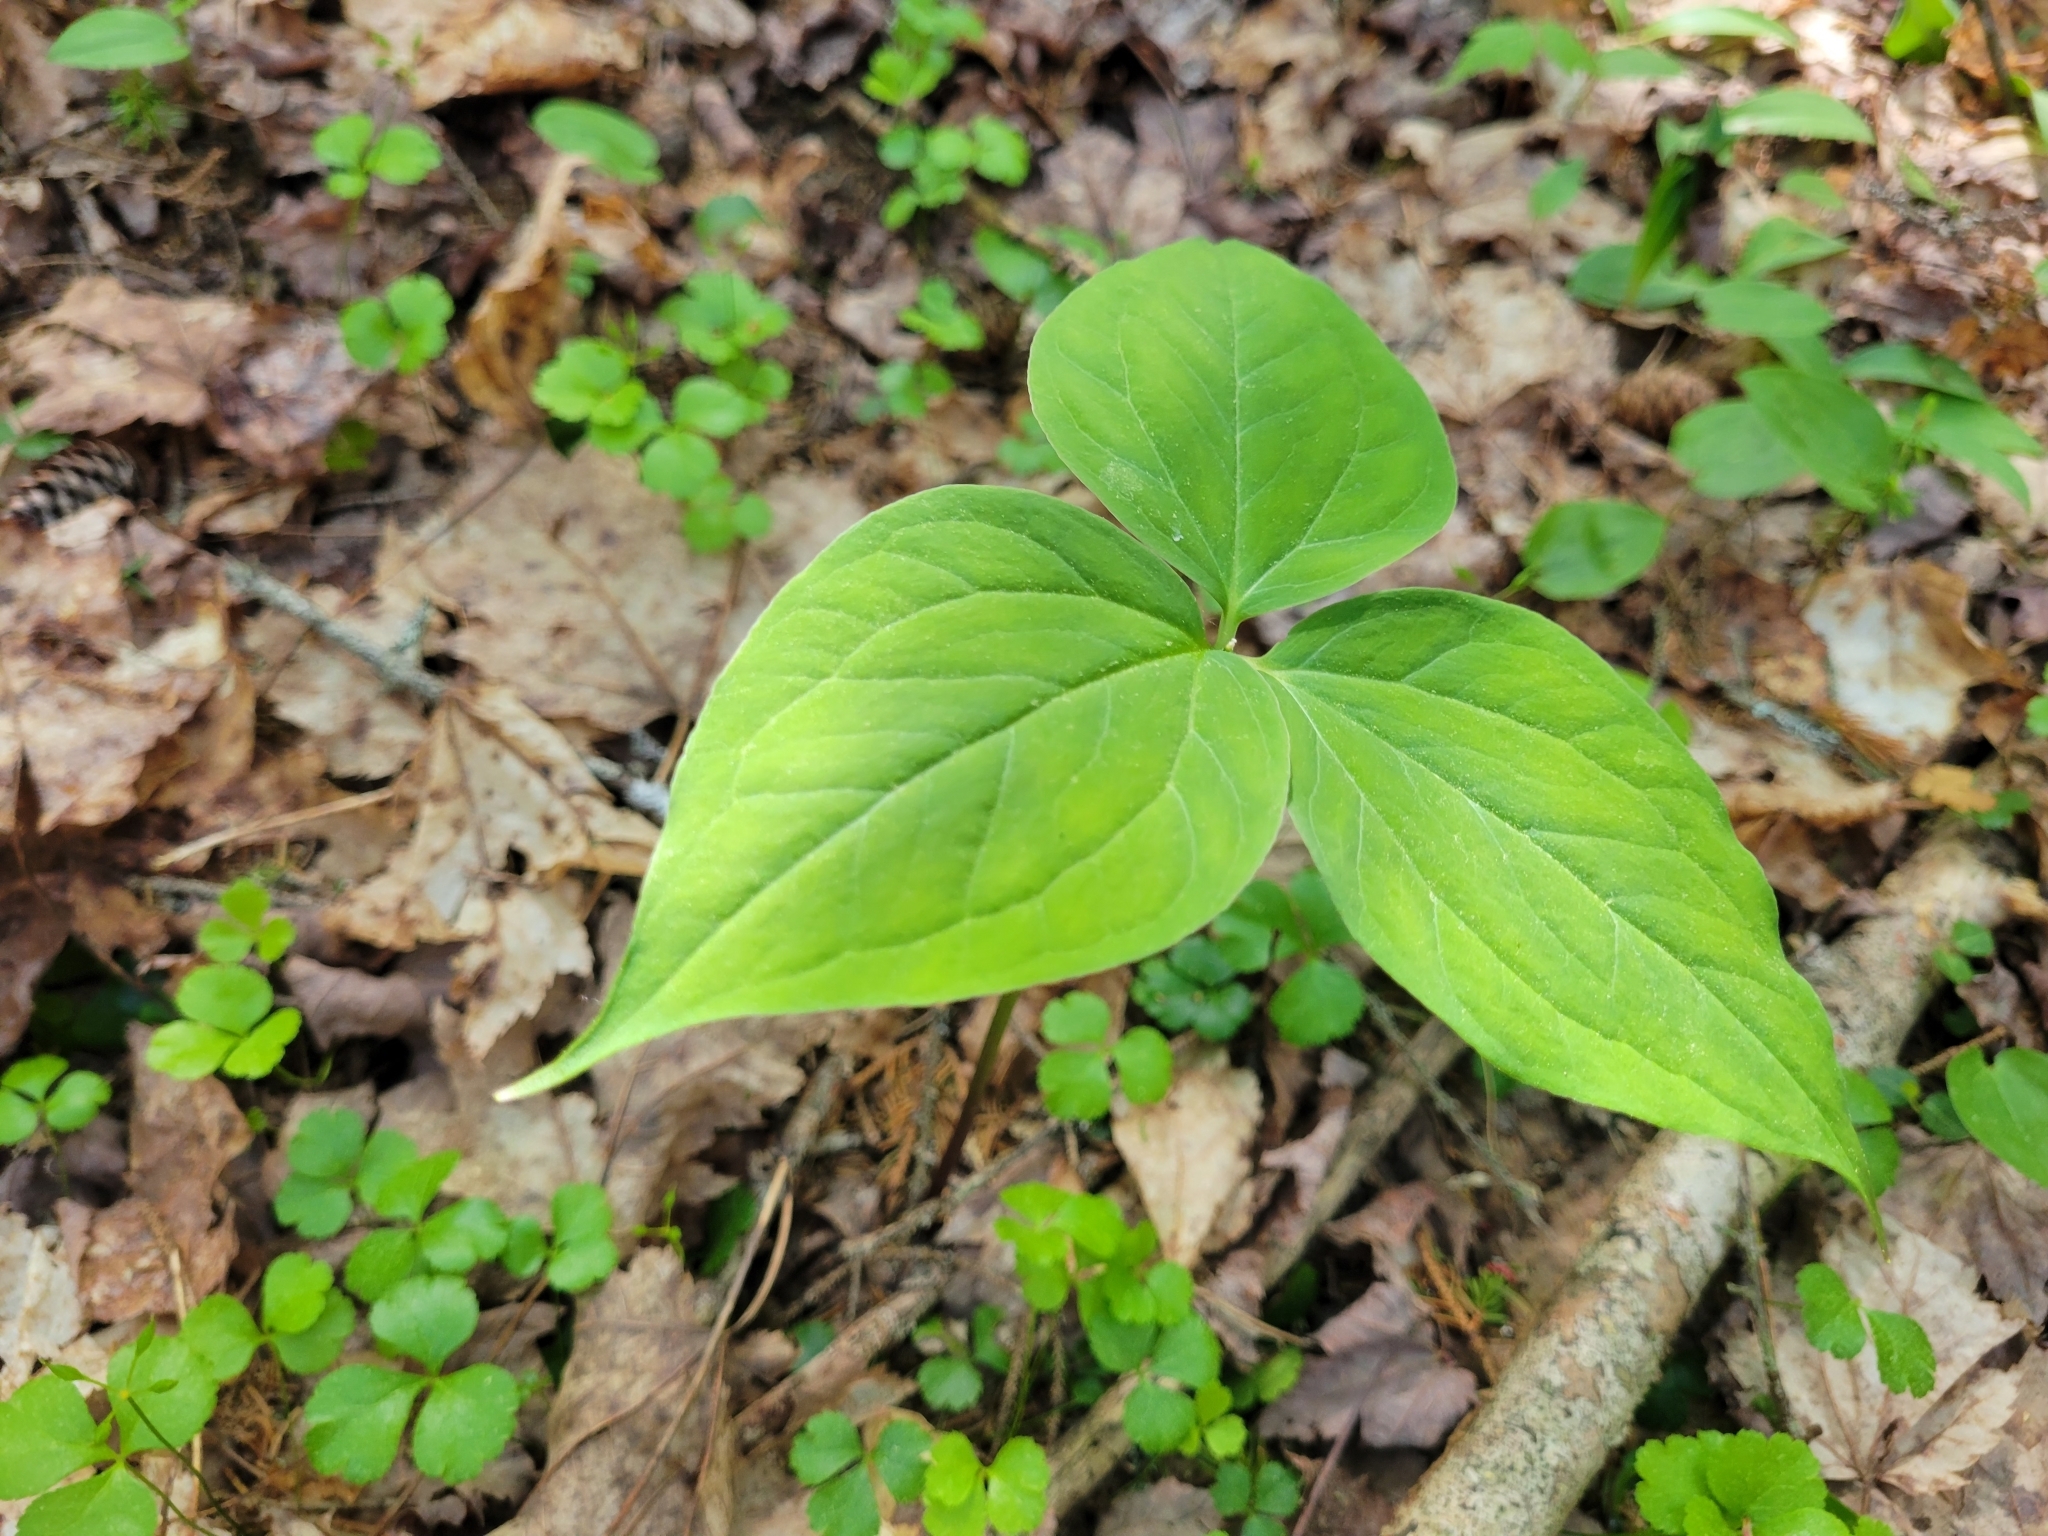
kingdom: Plantae
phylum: Tracheophyta
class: Liliopsida
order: Liliales
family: Melanthiaceae
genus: Trillium
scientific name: Trillium undulatum
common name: Paint trillium
